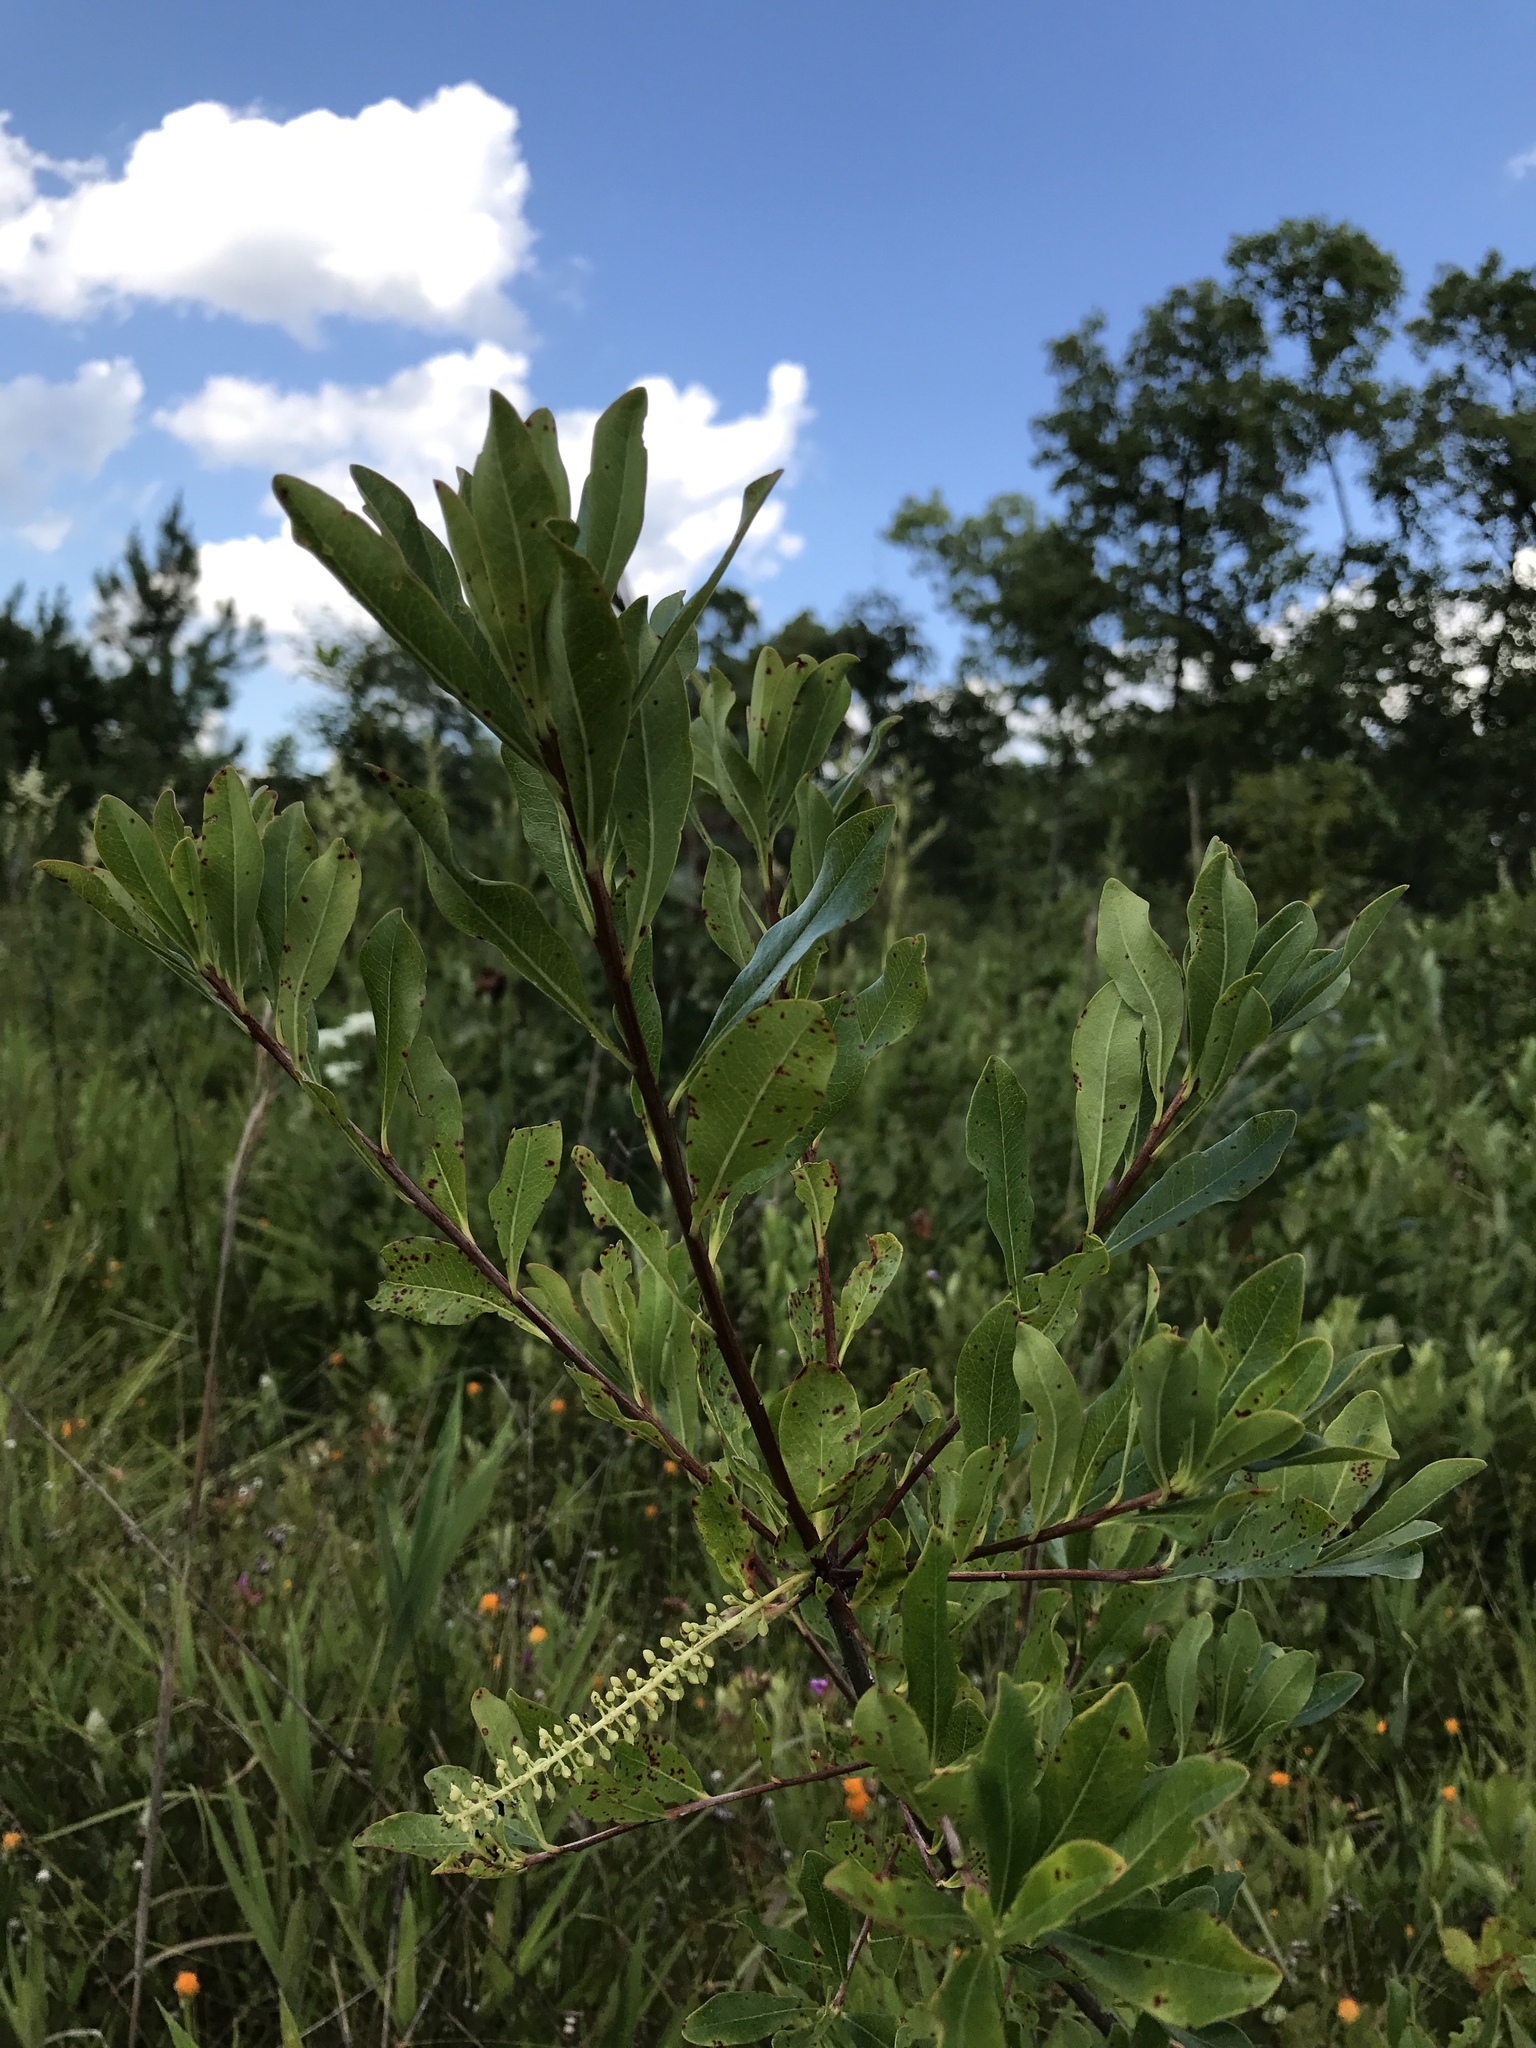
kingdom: Plantae
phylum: Tracheophyta
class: Magnoliopsida
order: Ericales
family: Cyrillaceae
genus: Cyrilla
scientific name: Cyrilla racemiflora
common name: Black titi
